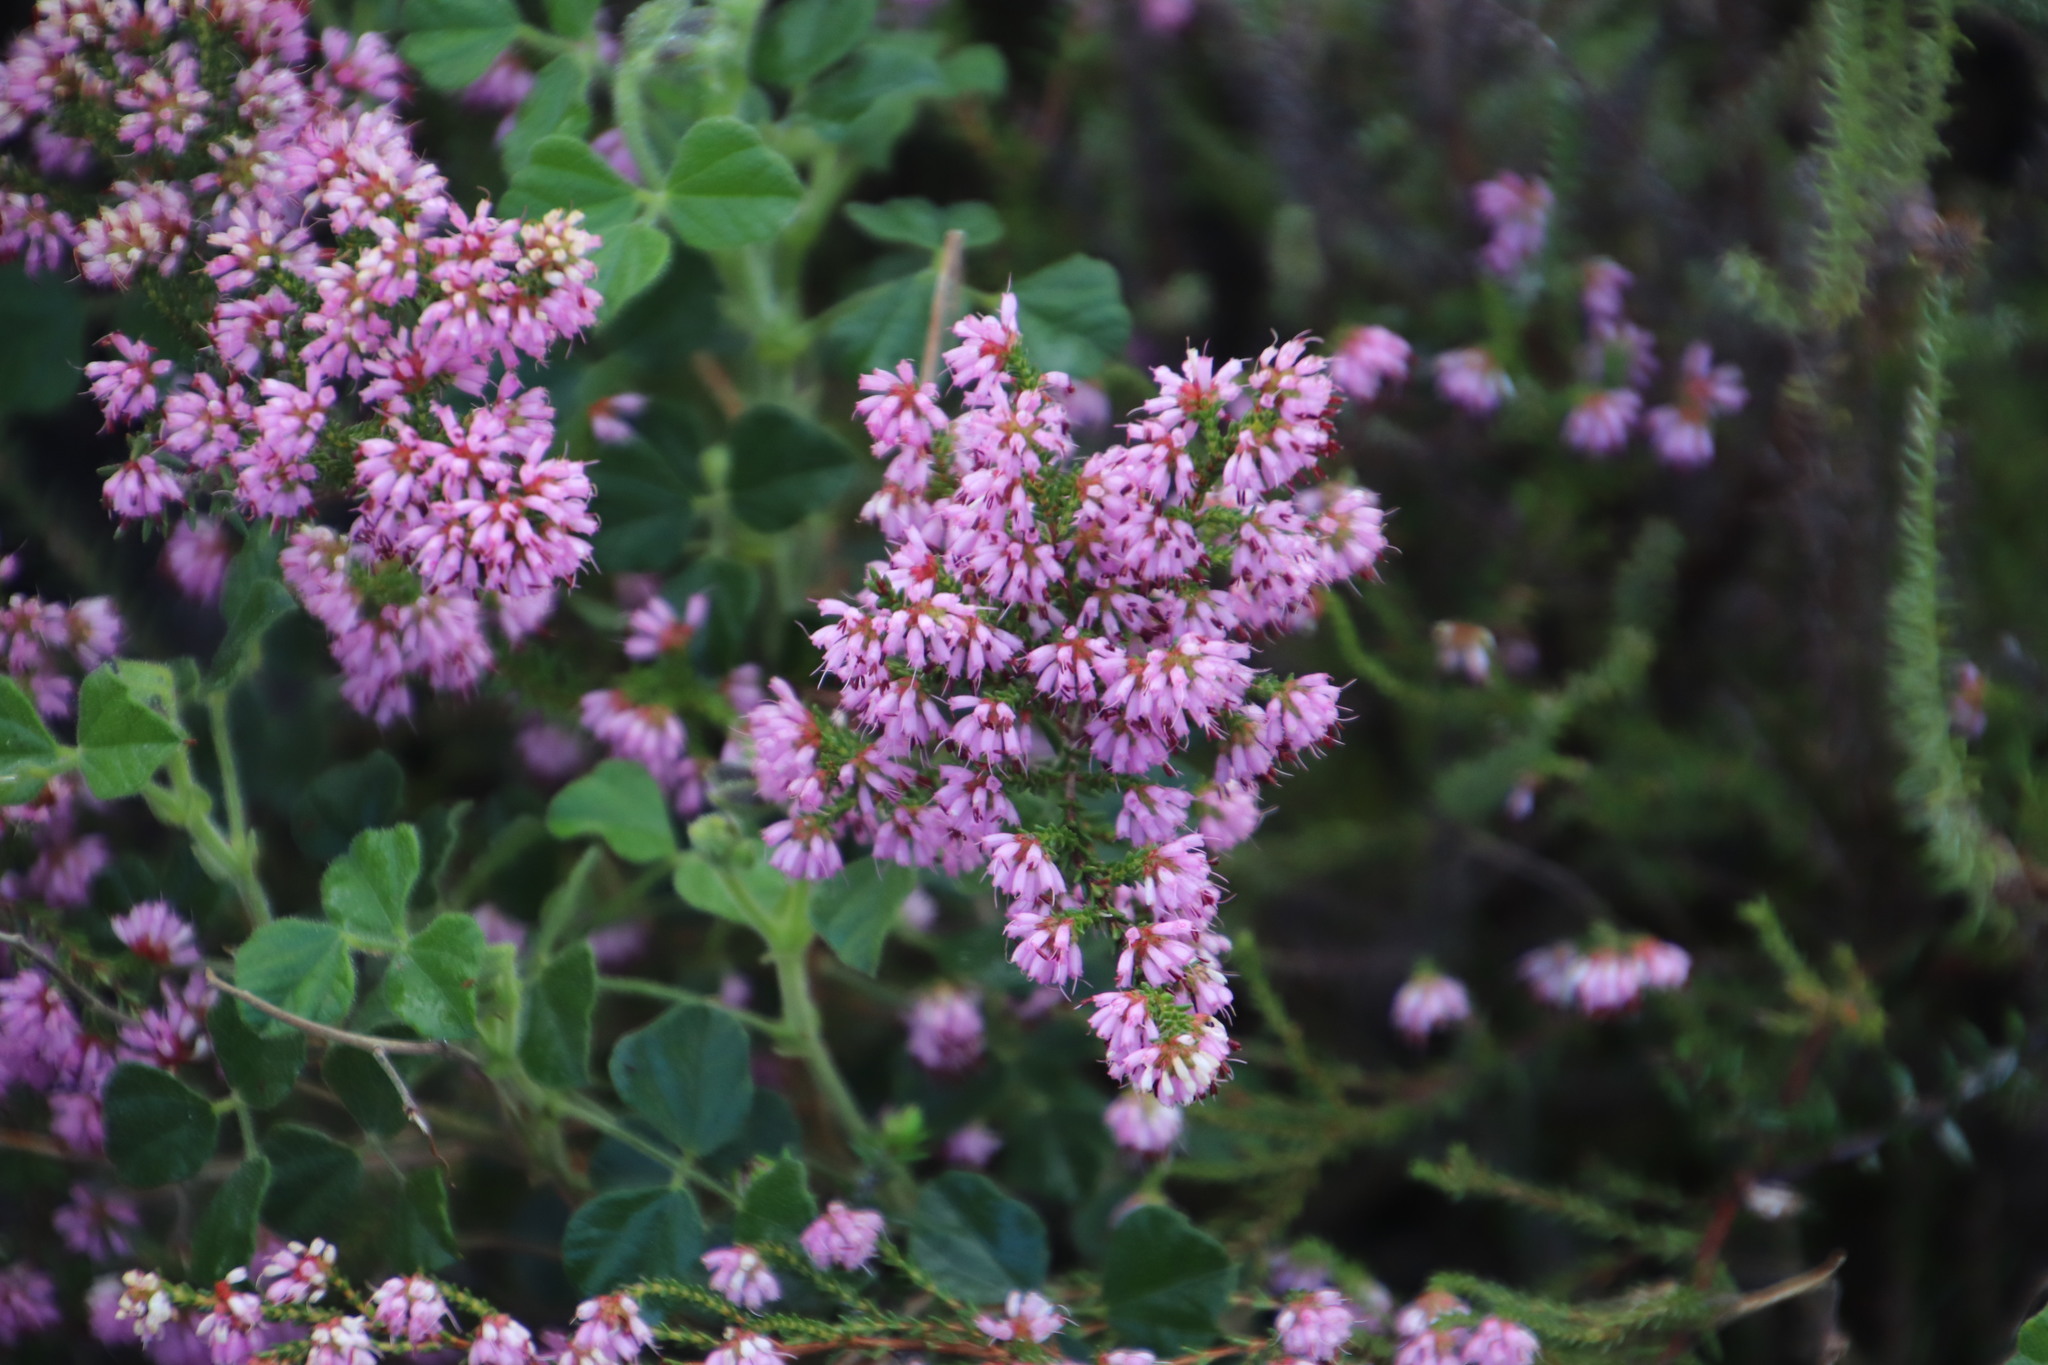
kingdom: Plantae
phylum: Tracheophyta
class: Magnoliopsida
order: Ericales
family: Ericaceae
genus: Erica
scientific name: Erica glabella
